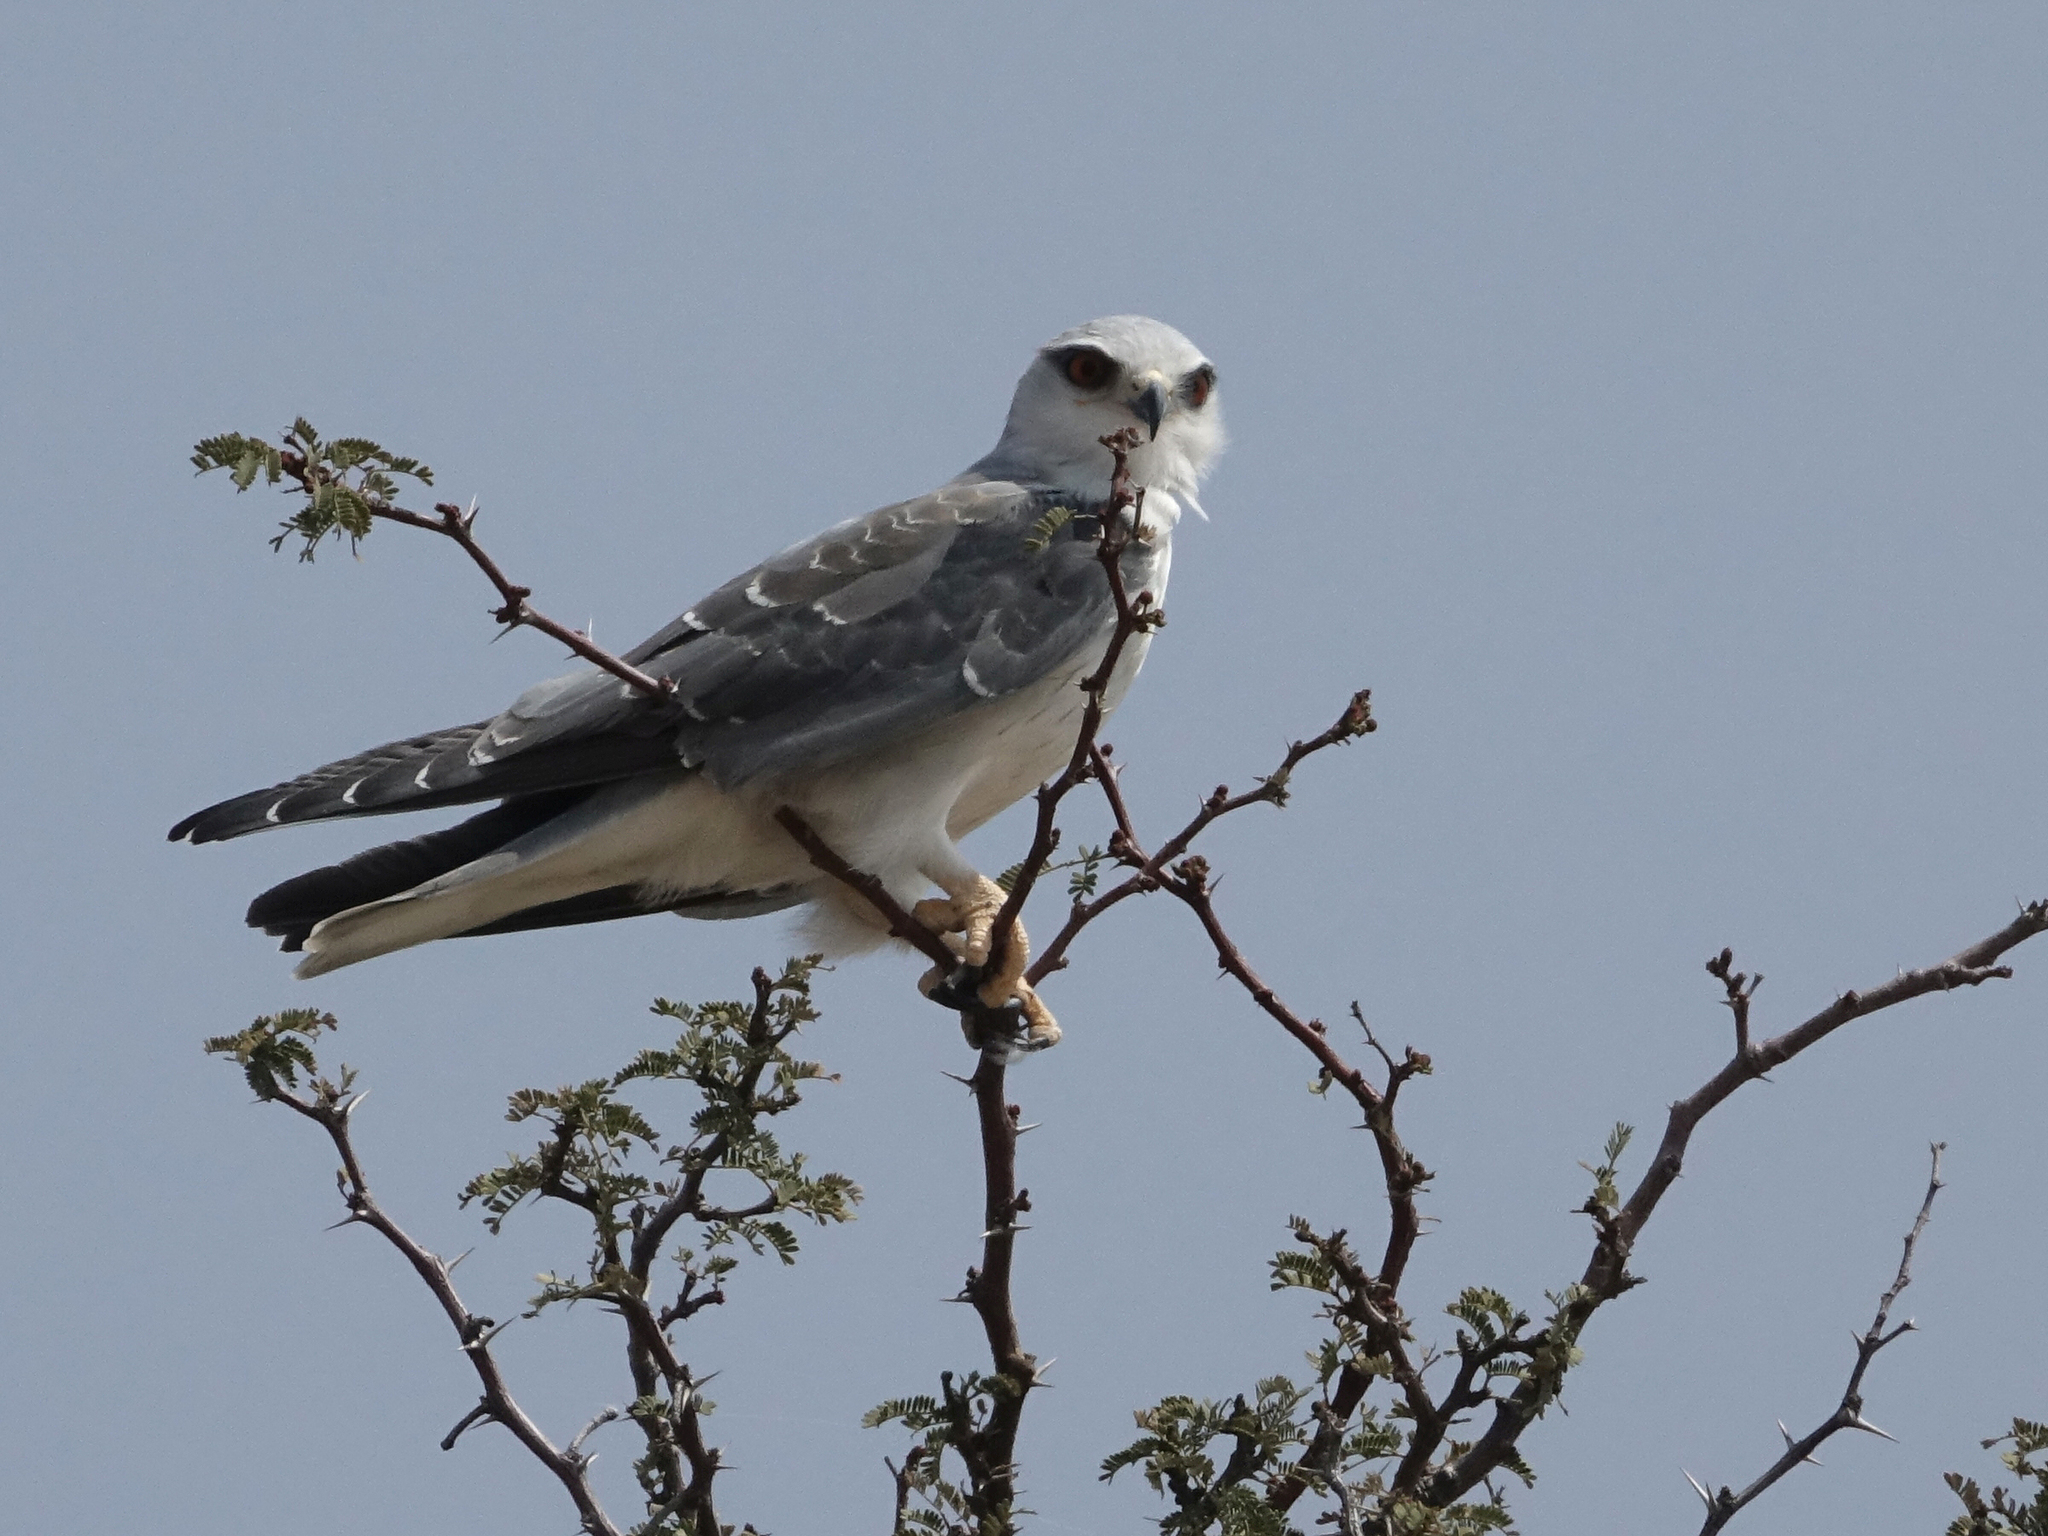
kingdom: Animalia
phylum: Chordata
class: Aves
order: Accipitriformes
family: Accipitridae
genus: Elanus
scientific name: Elanus caeruleus
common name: Black-winged kite
